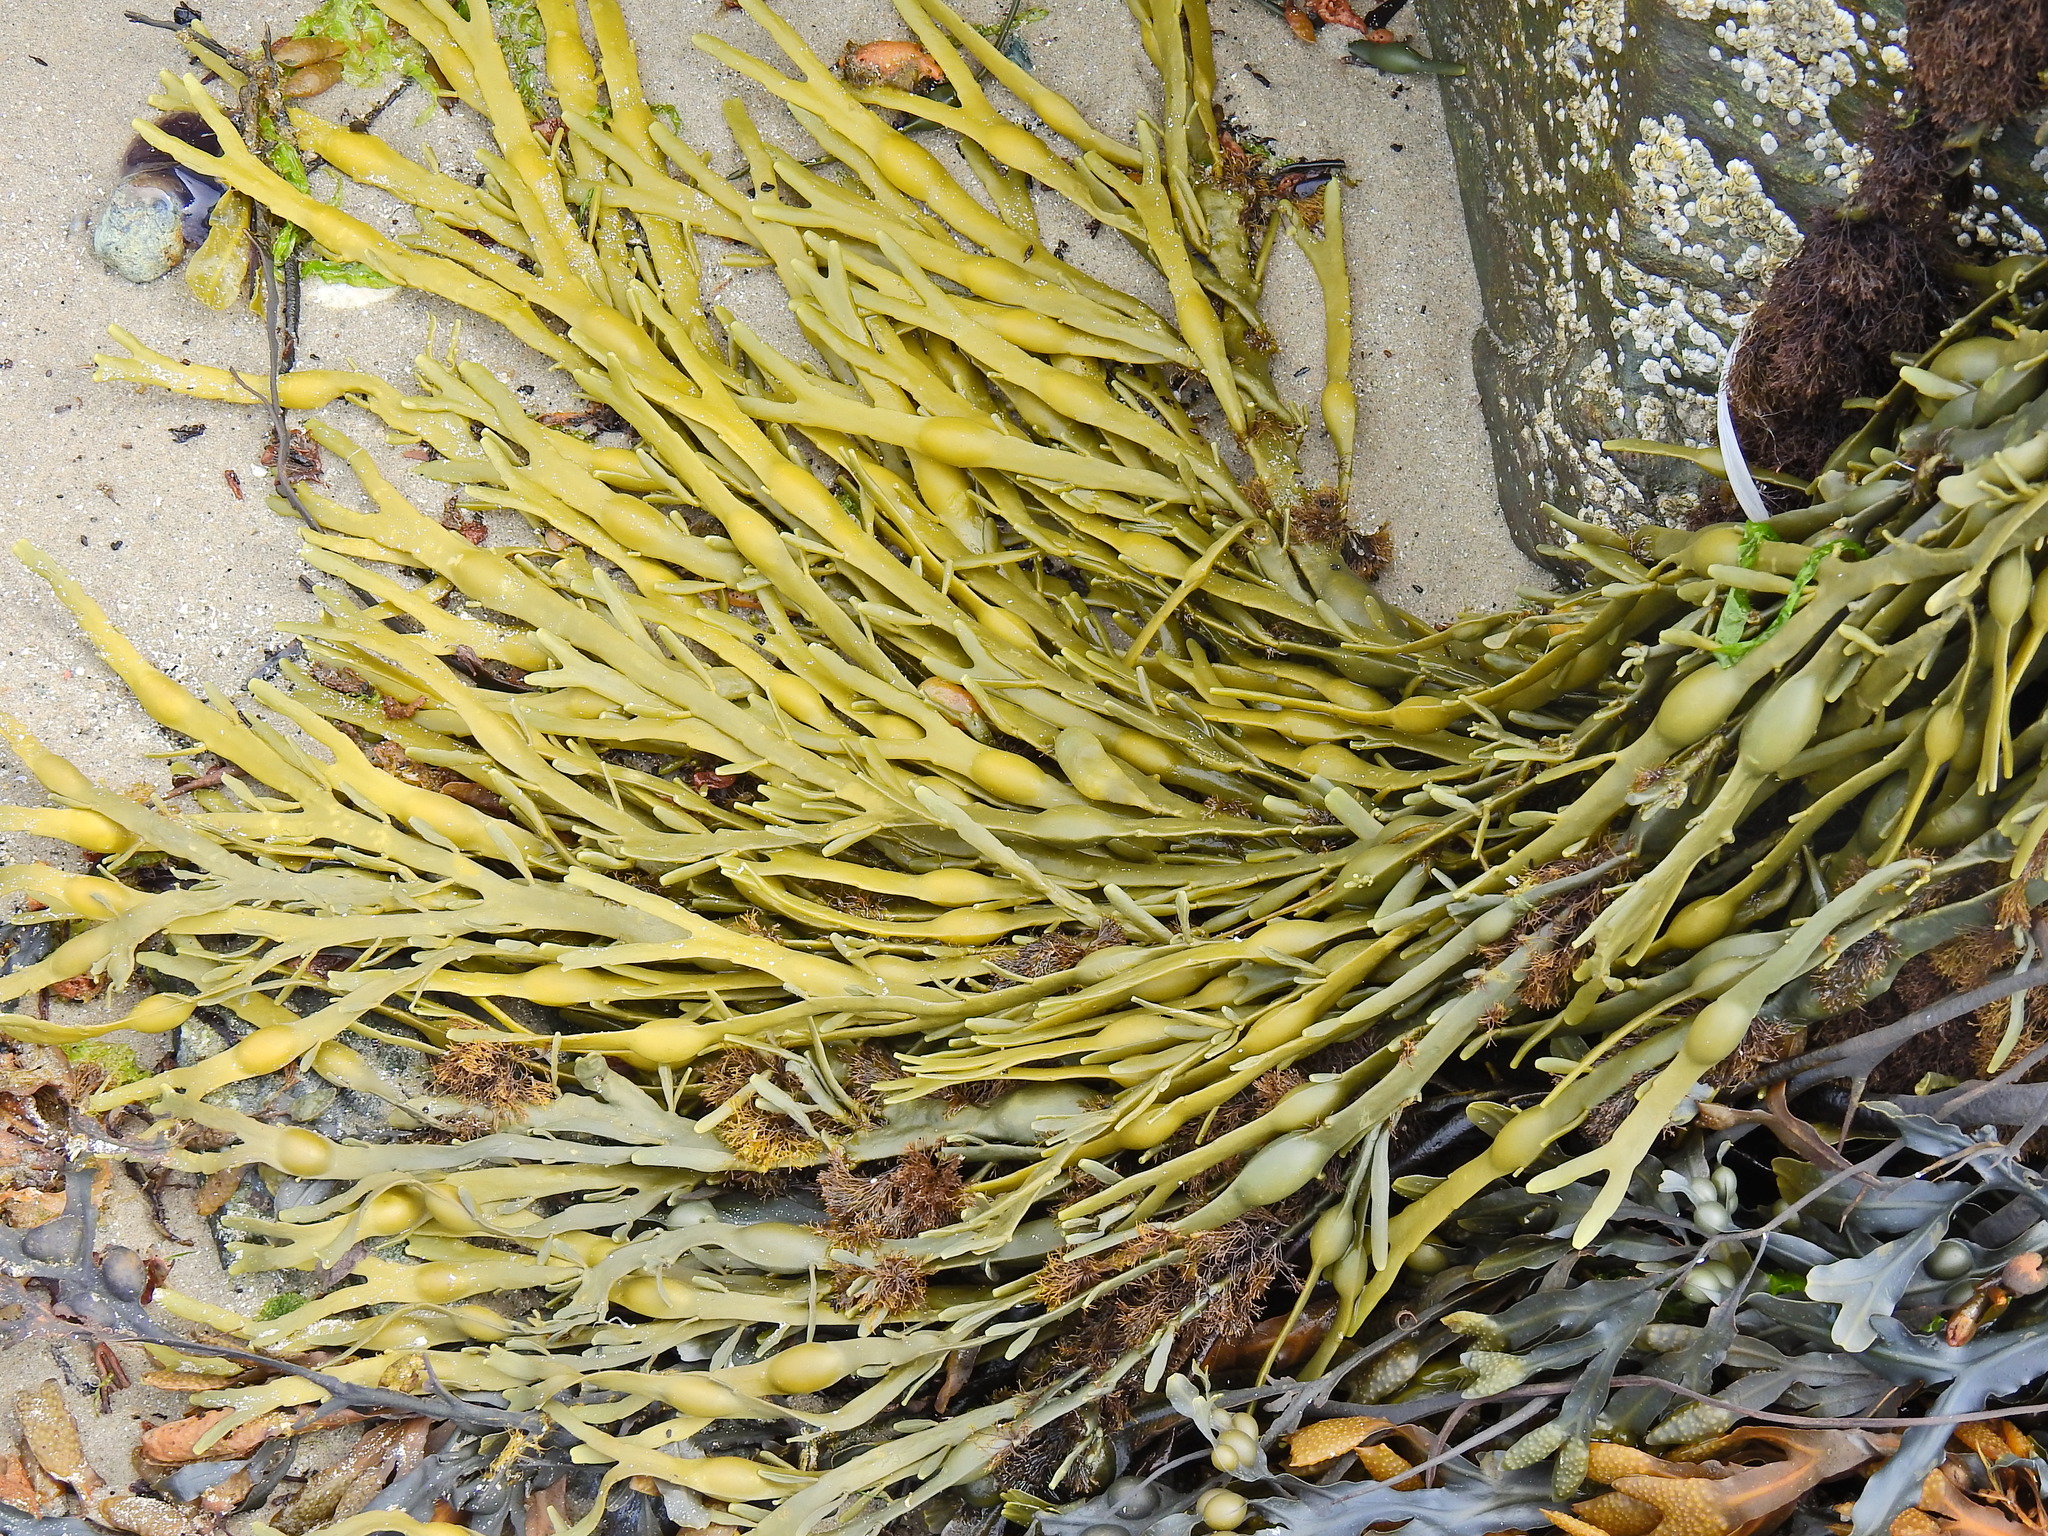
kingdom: Chromista
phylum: Ochrophyta
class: Phaeophyceae
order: Fucales
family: Fucaceae
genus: Ascophyllum
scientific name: Ascophyllum nodosum
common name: Knotted wrack
